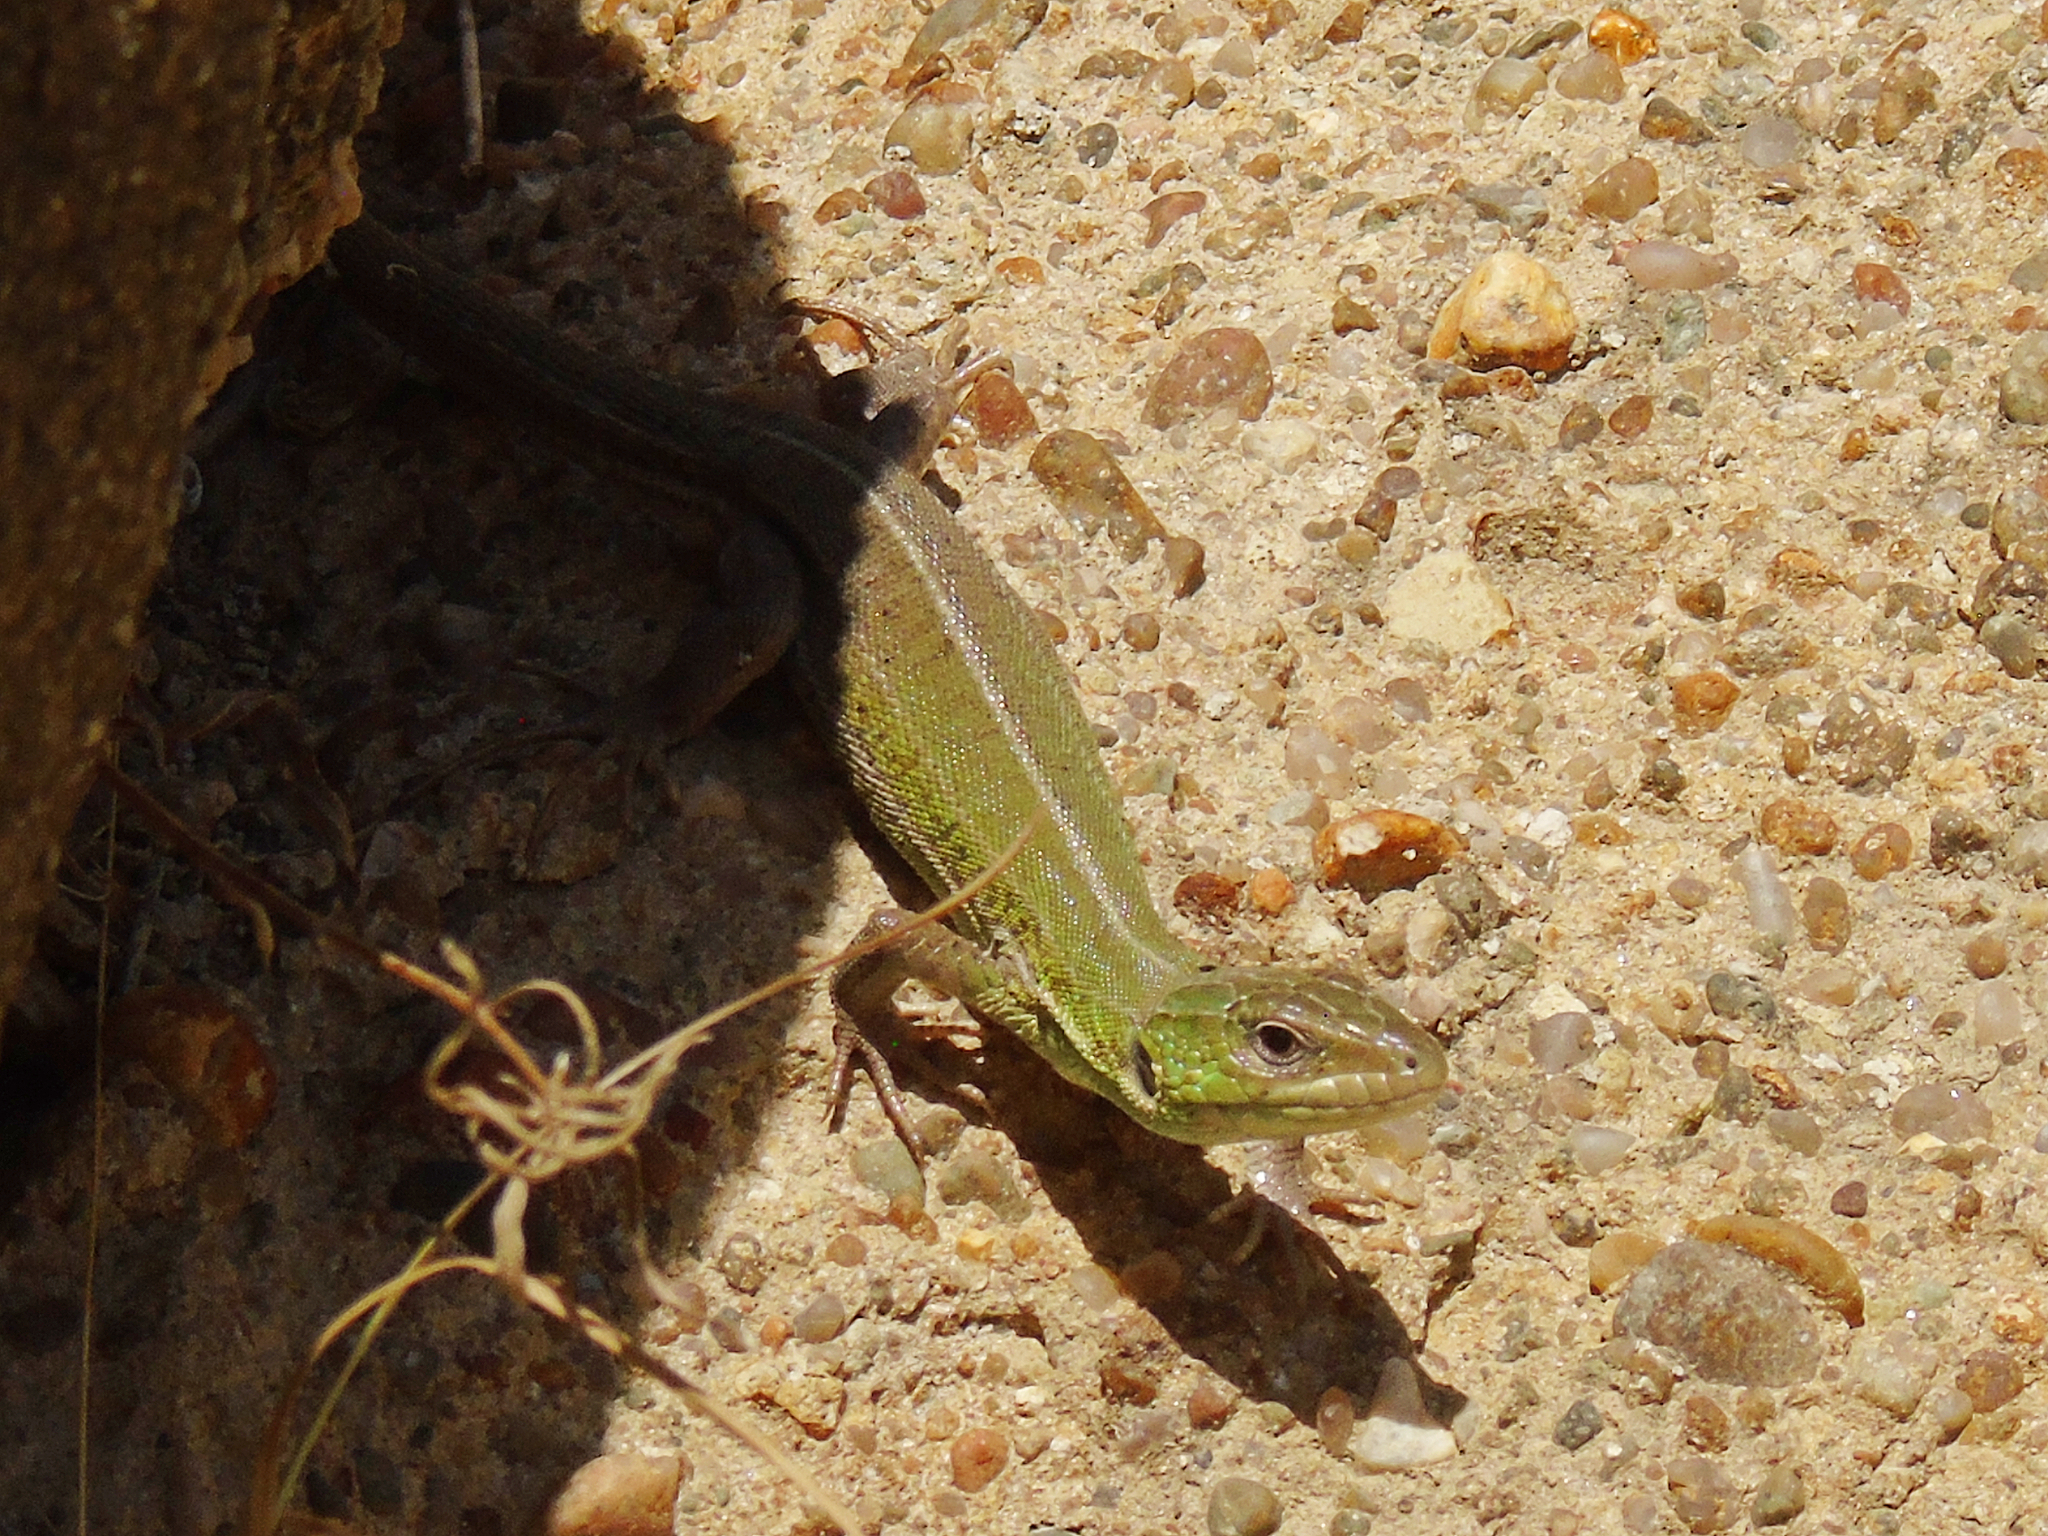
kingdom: Animalia
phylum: Chordata
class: Squamata
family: Lacertidae
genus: Lacerta
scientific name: Lacerta strigata
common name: Caspian green lizard
